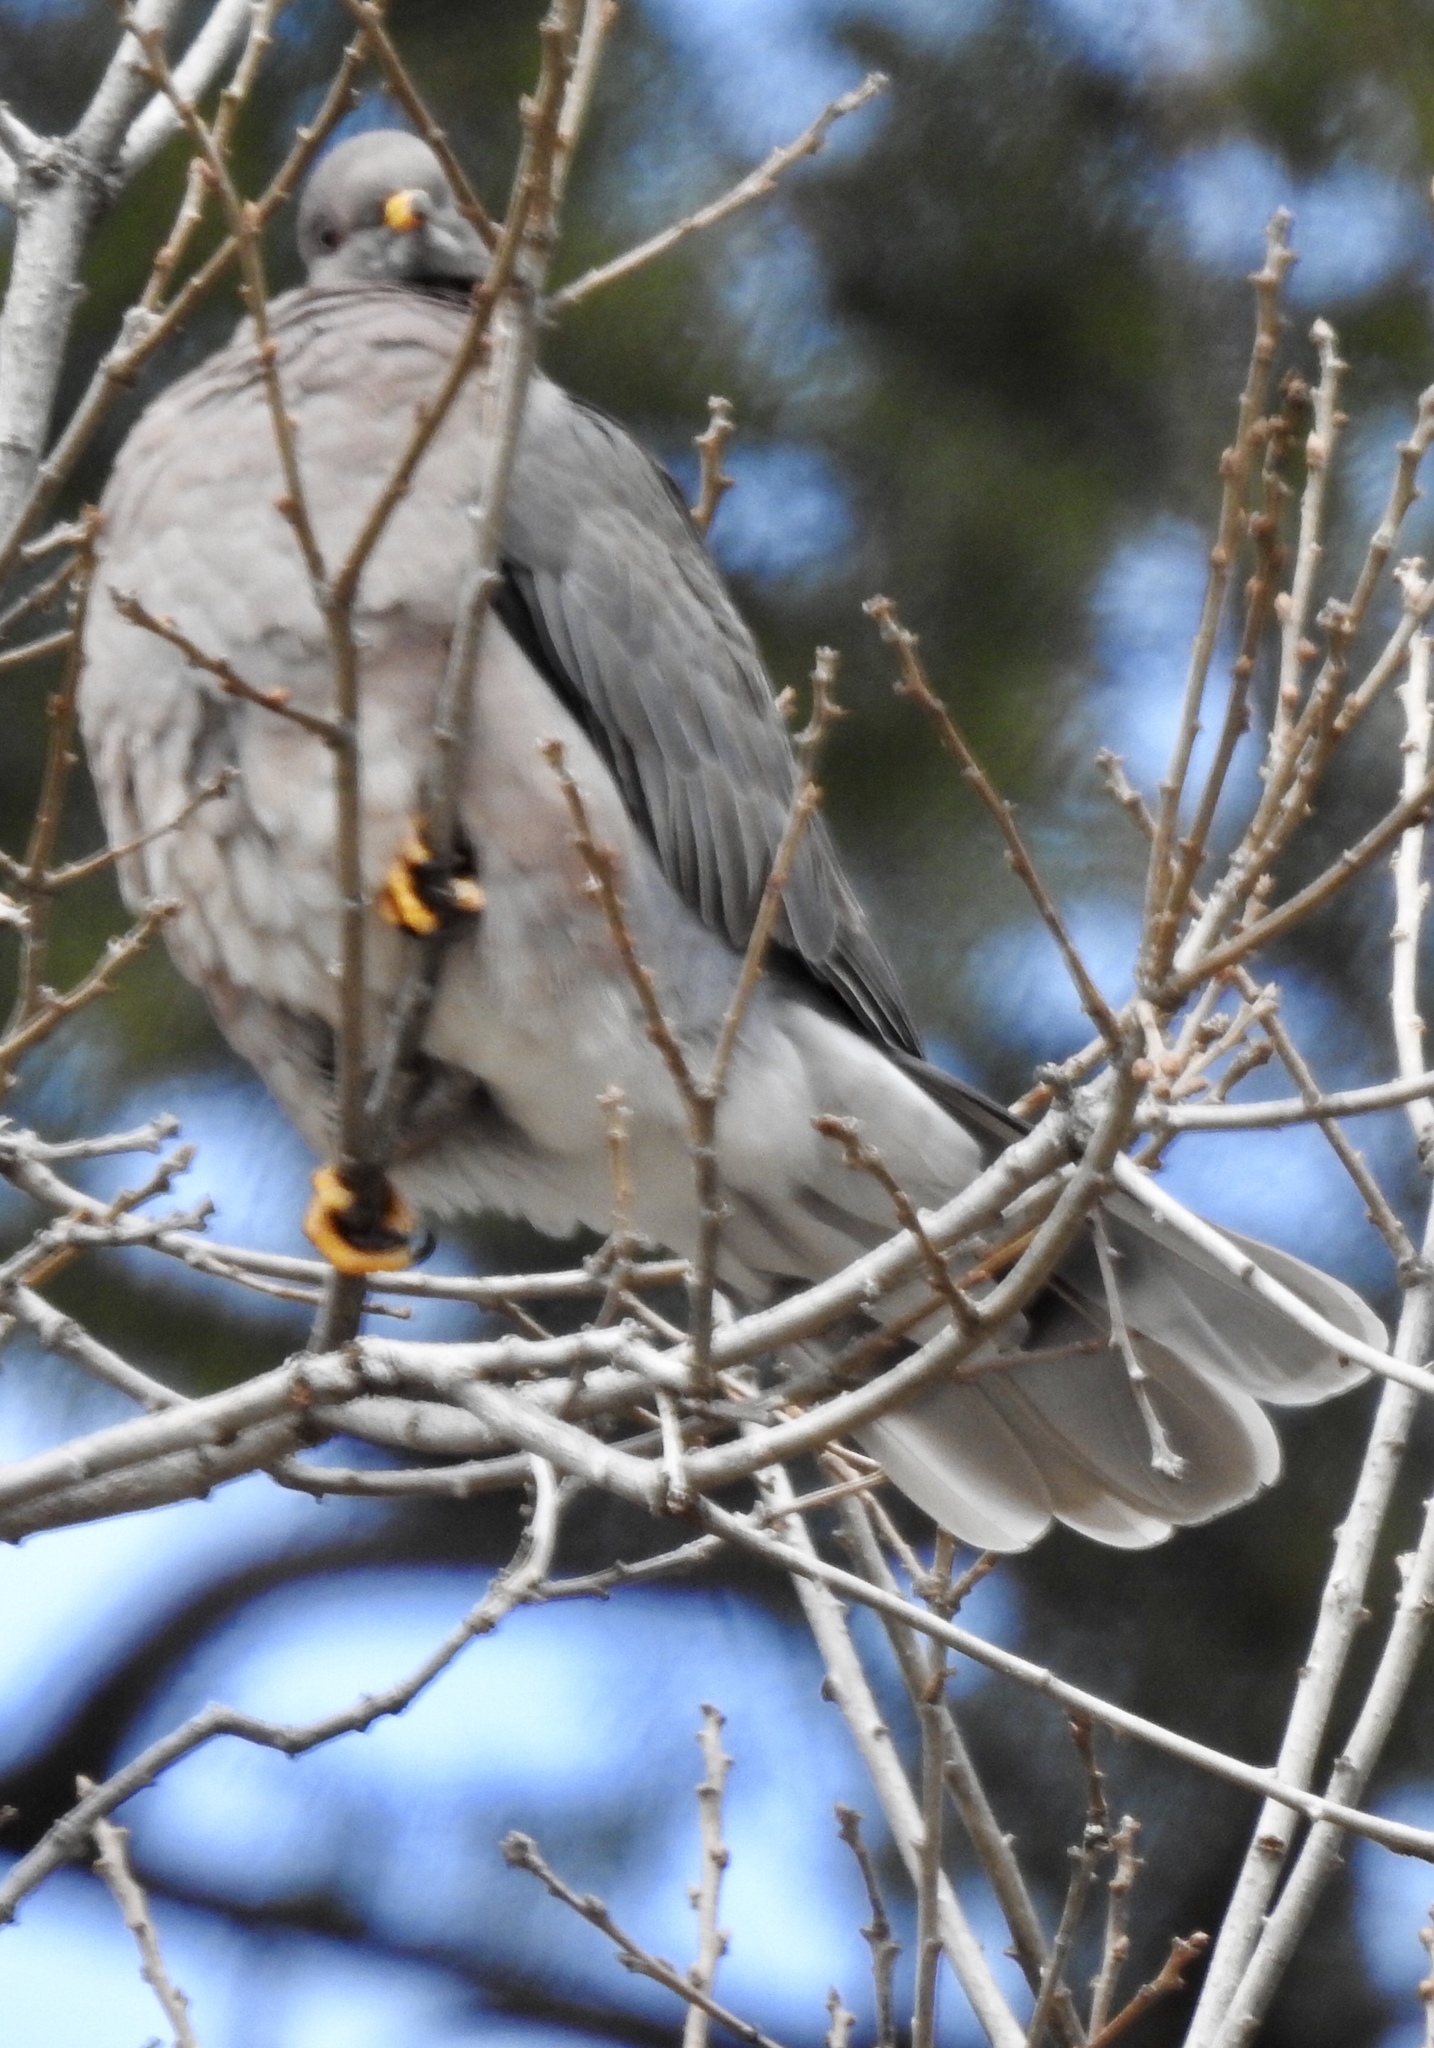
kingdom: Animalia
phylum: Chordata
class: Aves
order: Columbiformes
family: Columbidae
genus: Patagioenas
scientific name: Patagioenas fasciata
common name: Band-tailed pigeon
